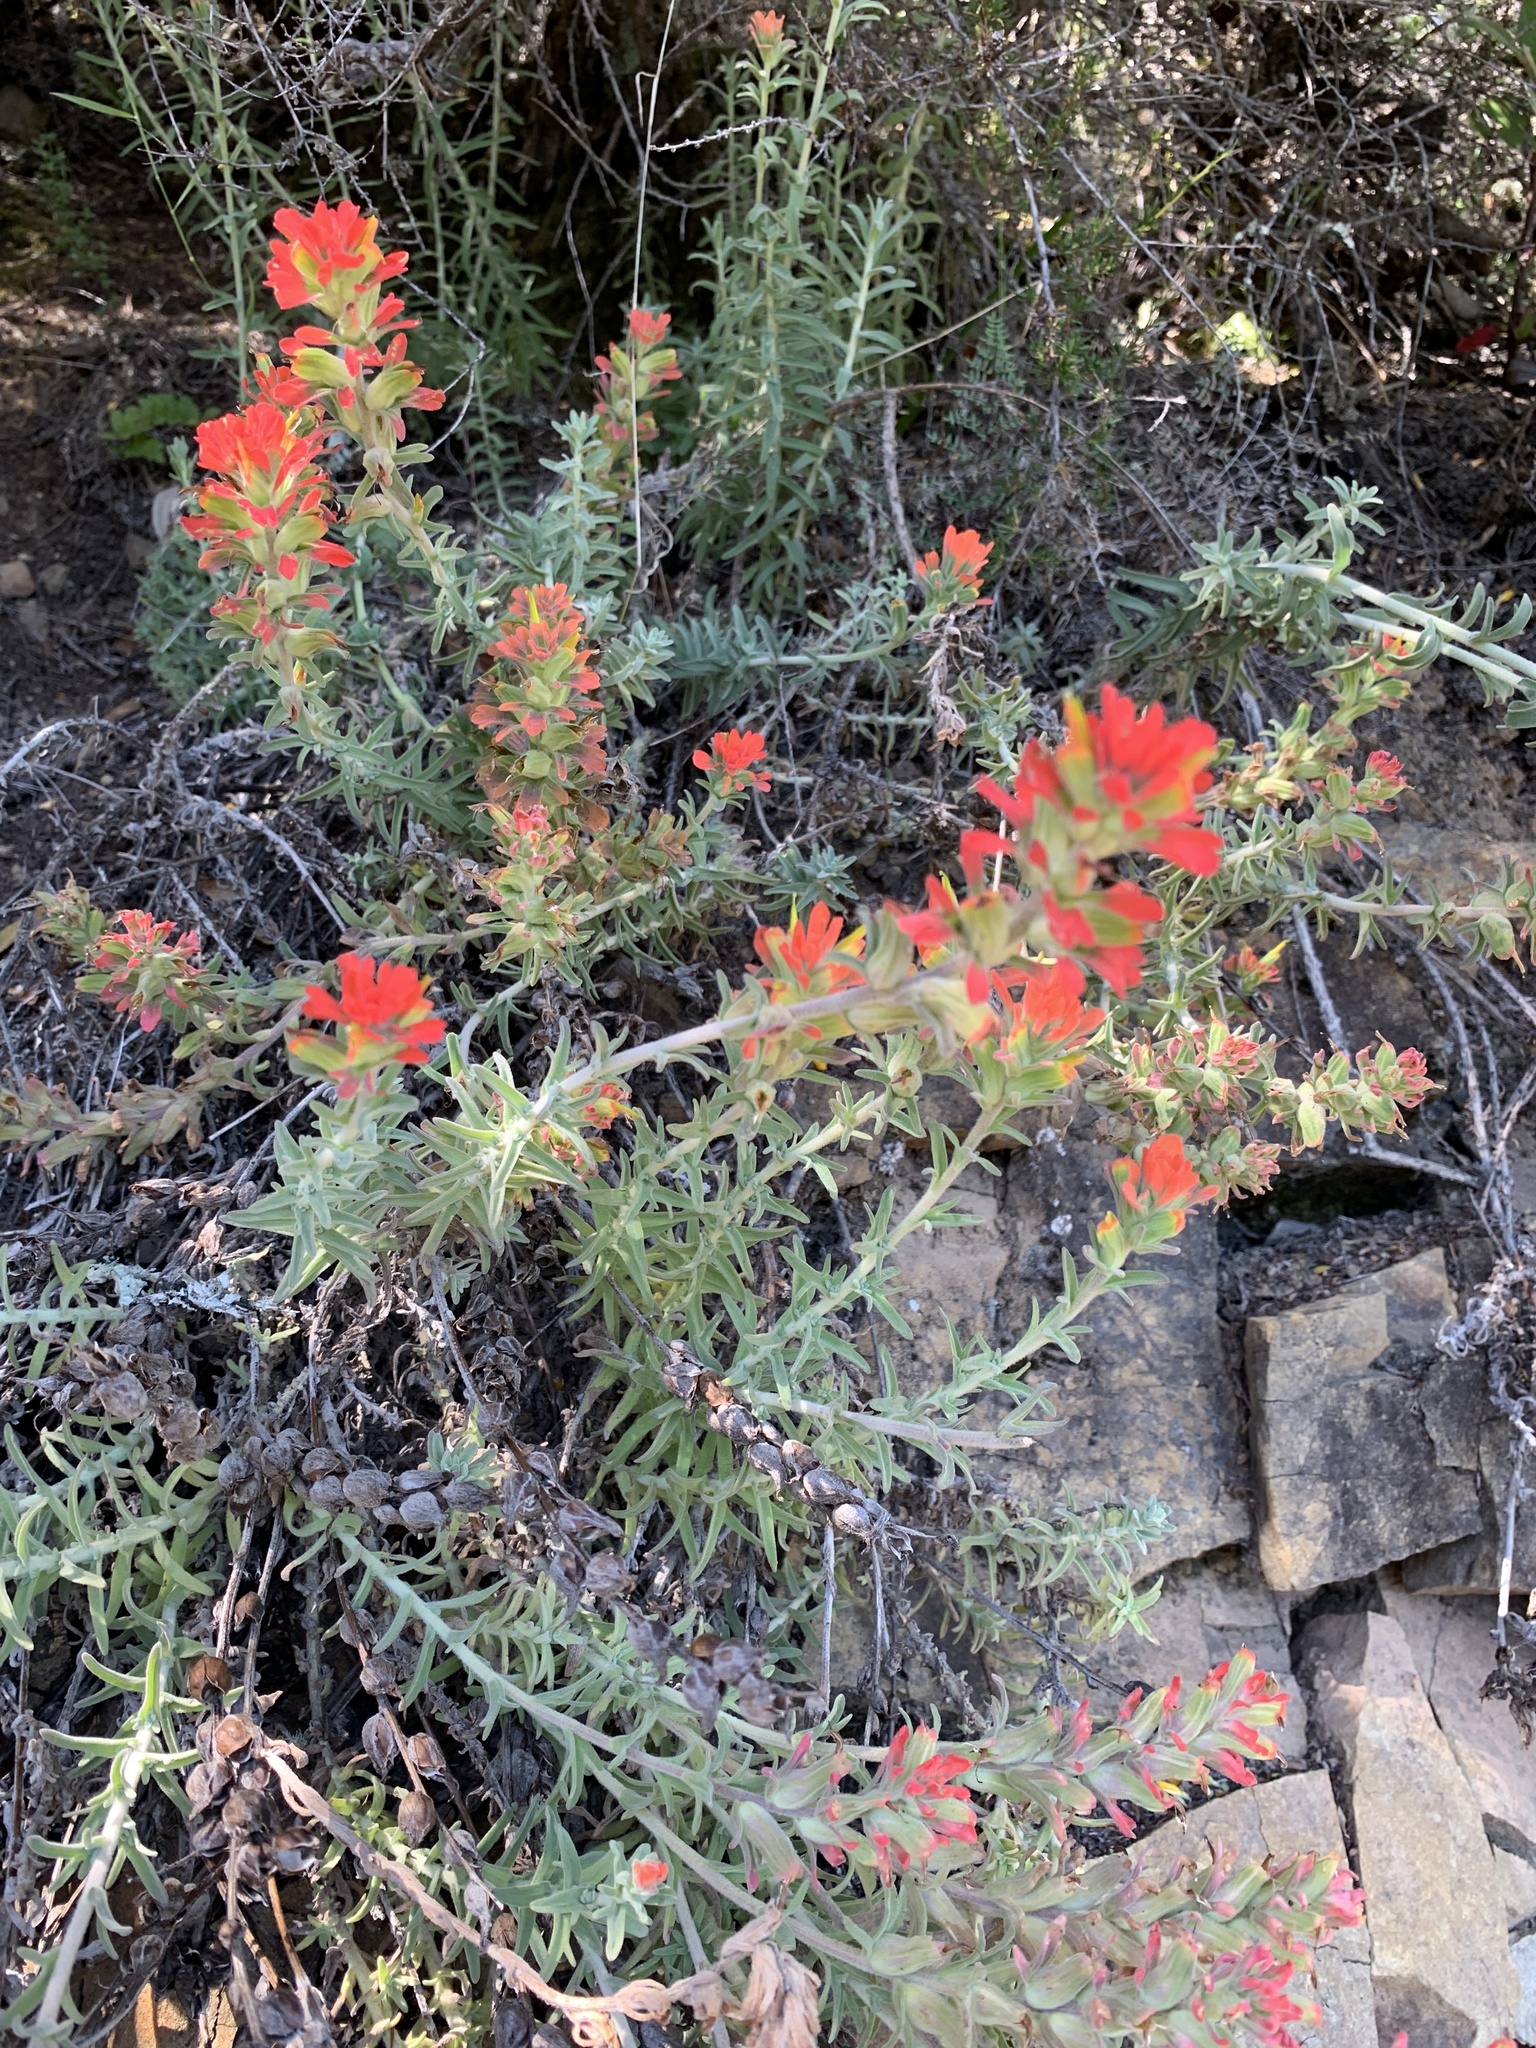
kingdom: Plantae
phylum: Tracheophyta
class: Magnoliopsida
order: Lamiales
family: Orobanchaceae
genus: Castilleja
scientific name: Castilleja foliolosa
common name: Woolly indian paintbrush
